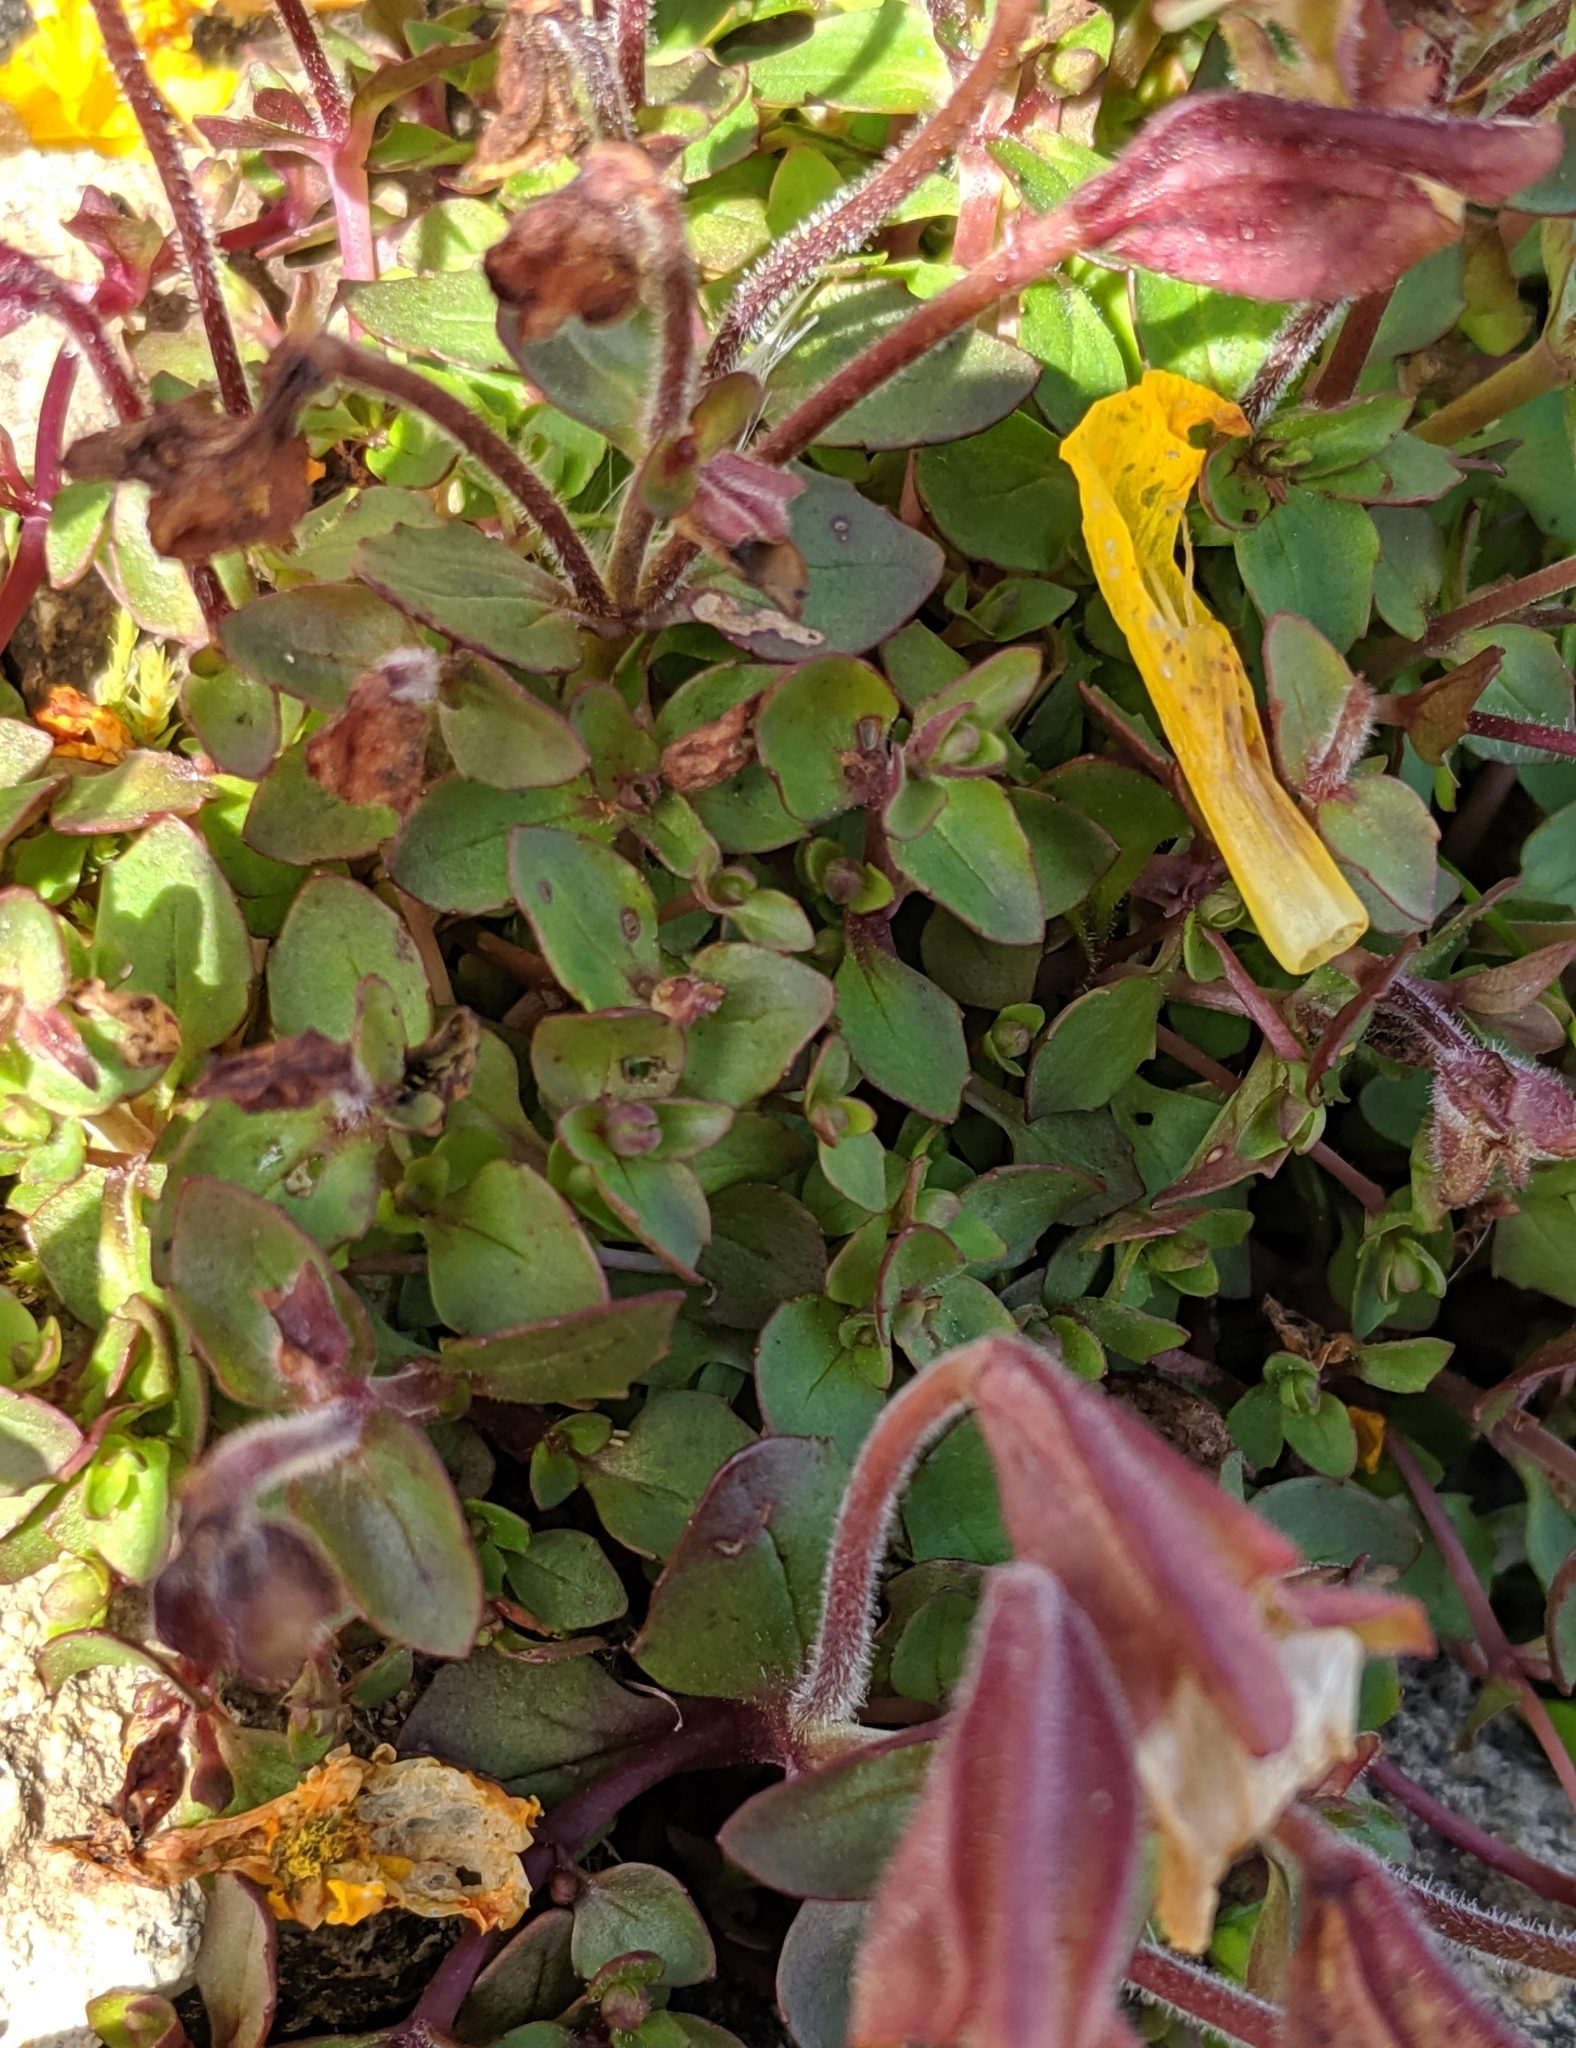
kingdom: Plantae
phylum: Tracheophyta
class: Magnoliopsida
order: Lamiales
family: Phrymaceae
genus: Erythranthe
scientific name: Erythranthe caespitosa
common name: Subalpine monkeyflower
